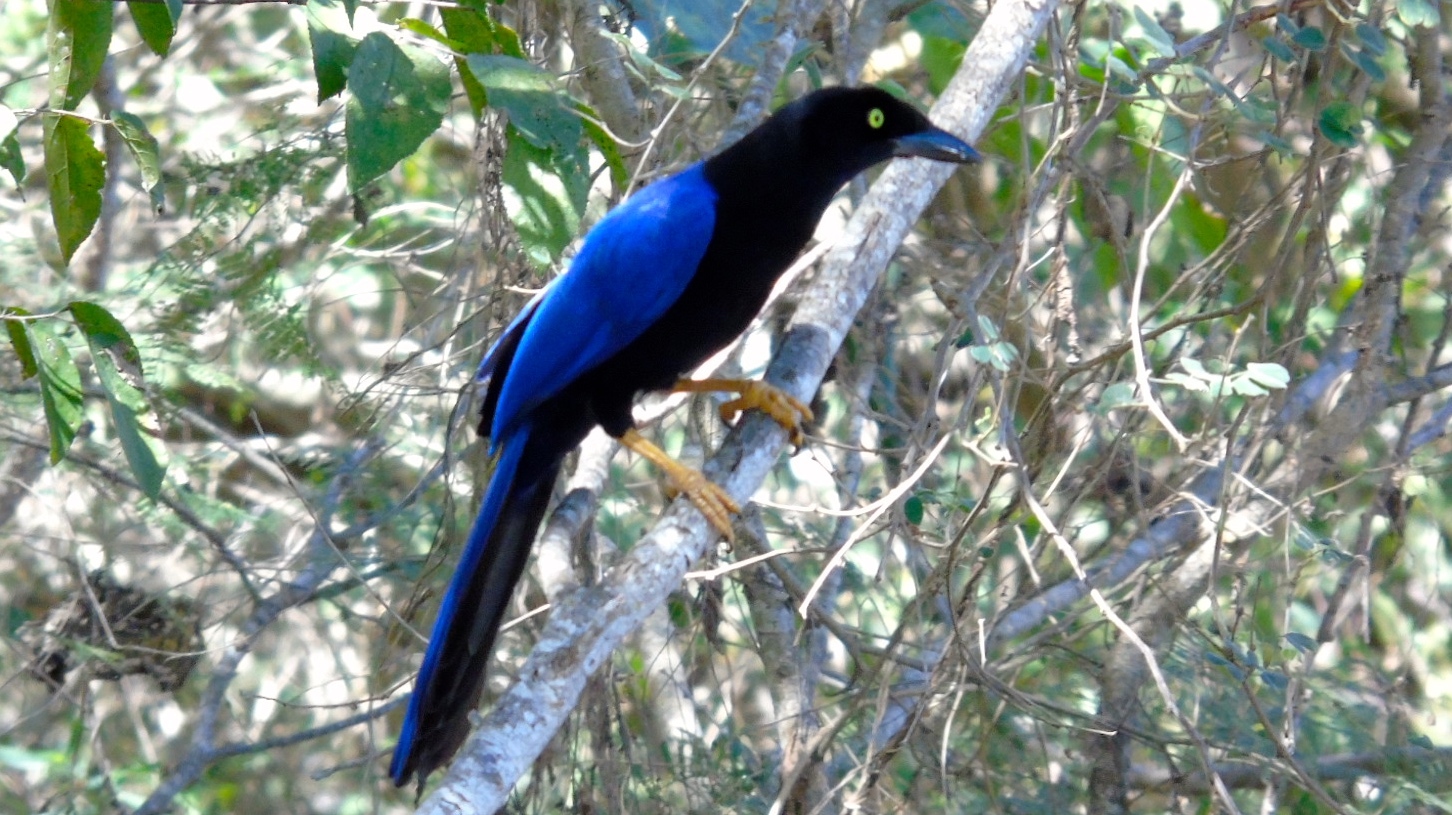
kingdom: Animalia
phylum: Chordata
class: Aves
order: Passeriformes
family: Corvidae
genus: Cyanocorax
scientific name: Cyanocorax beecheii
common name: Purplish-backed jay
